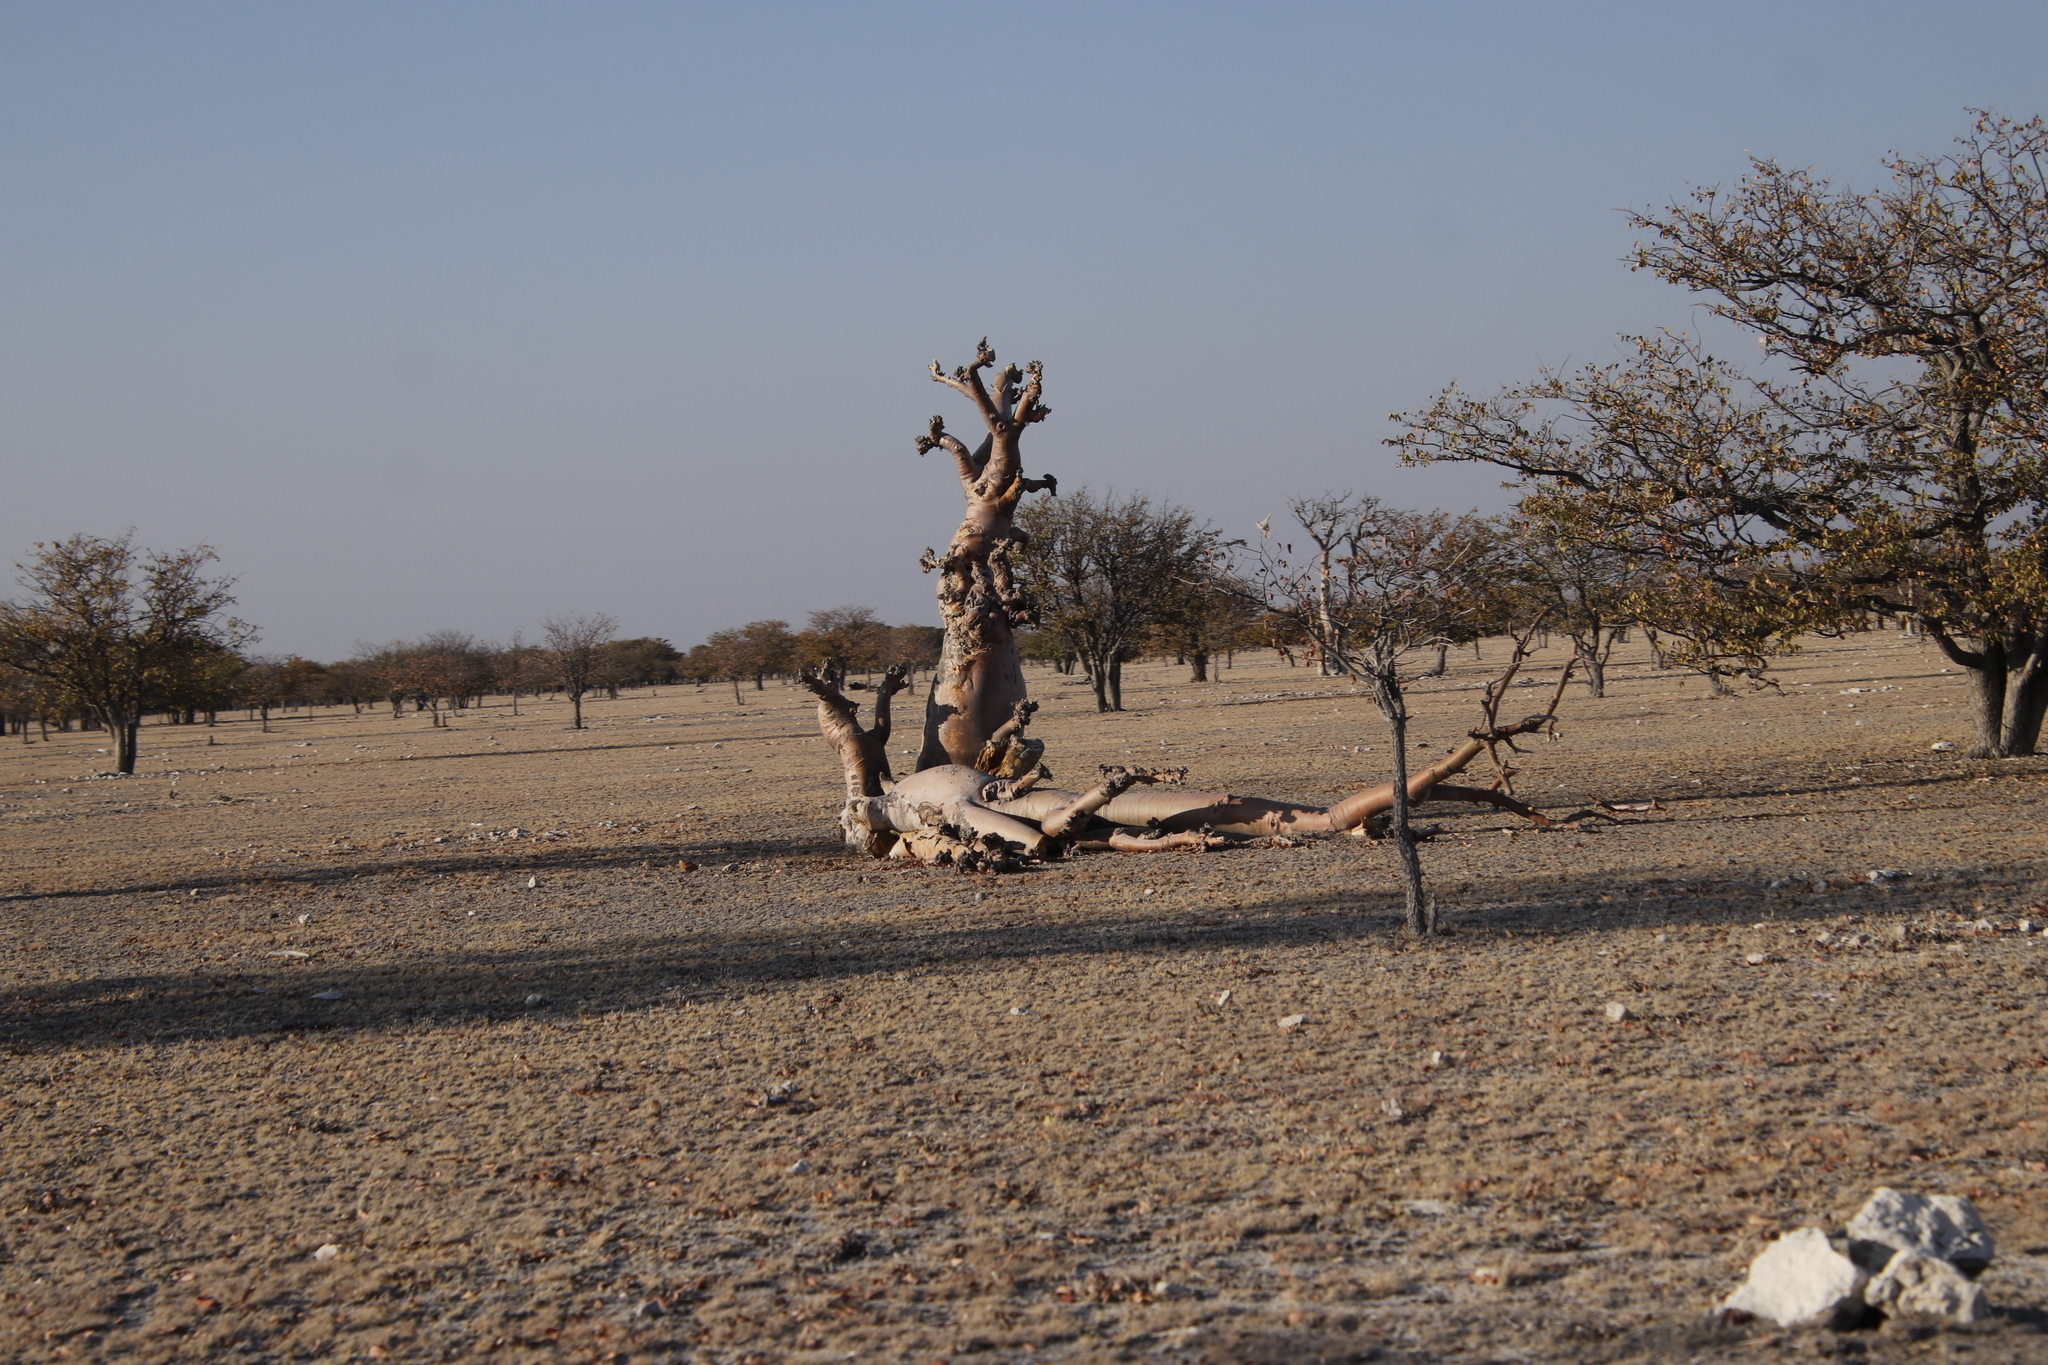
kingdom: Plantae
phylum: Tracheophyta
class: Magnoliopsida
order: Brassicales
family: Moringaceae
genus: Moringa
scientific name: Moringa ovalifolia
